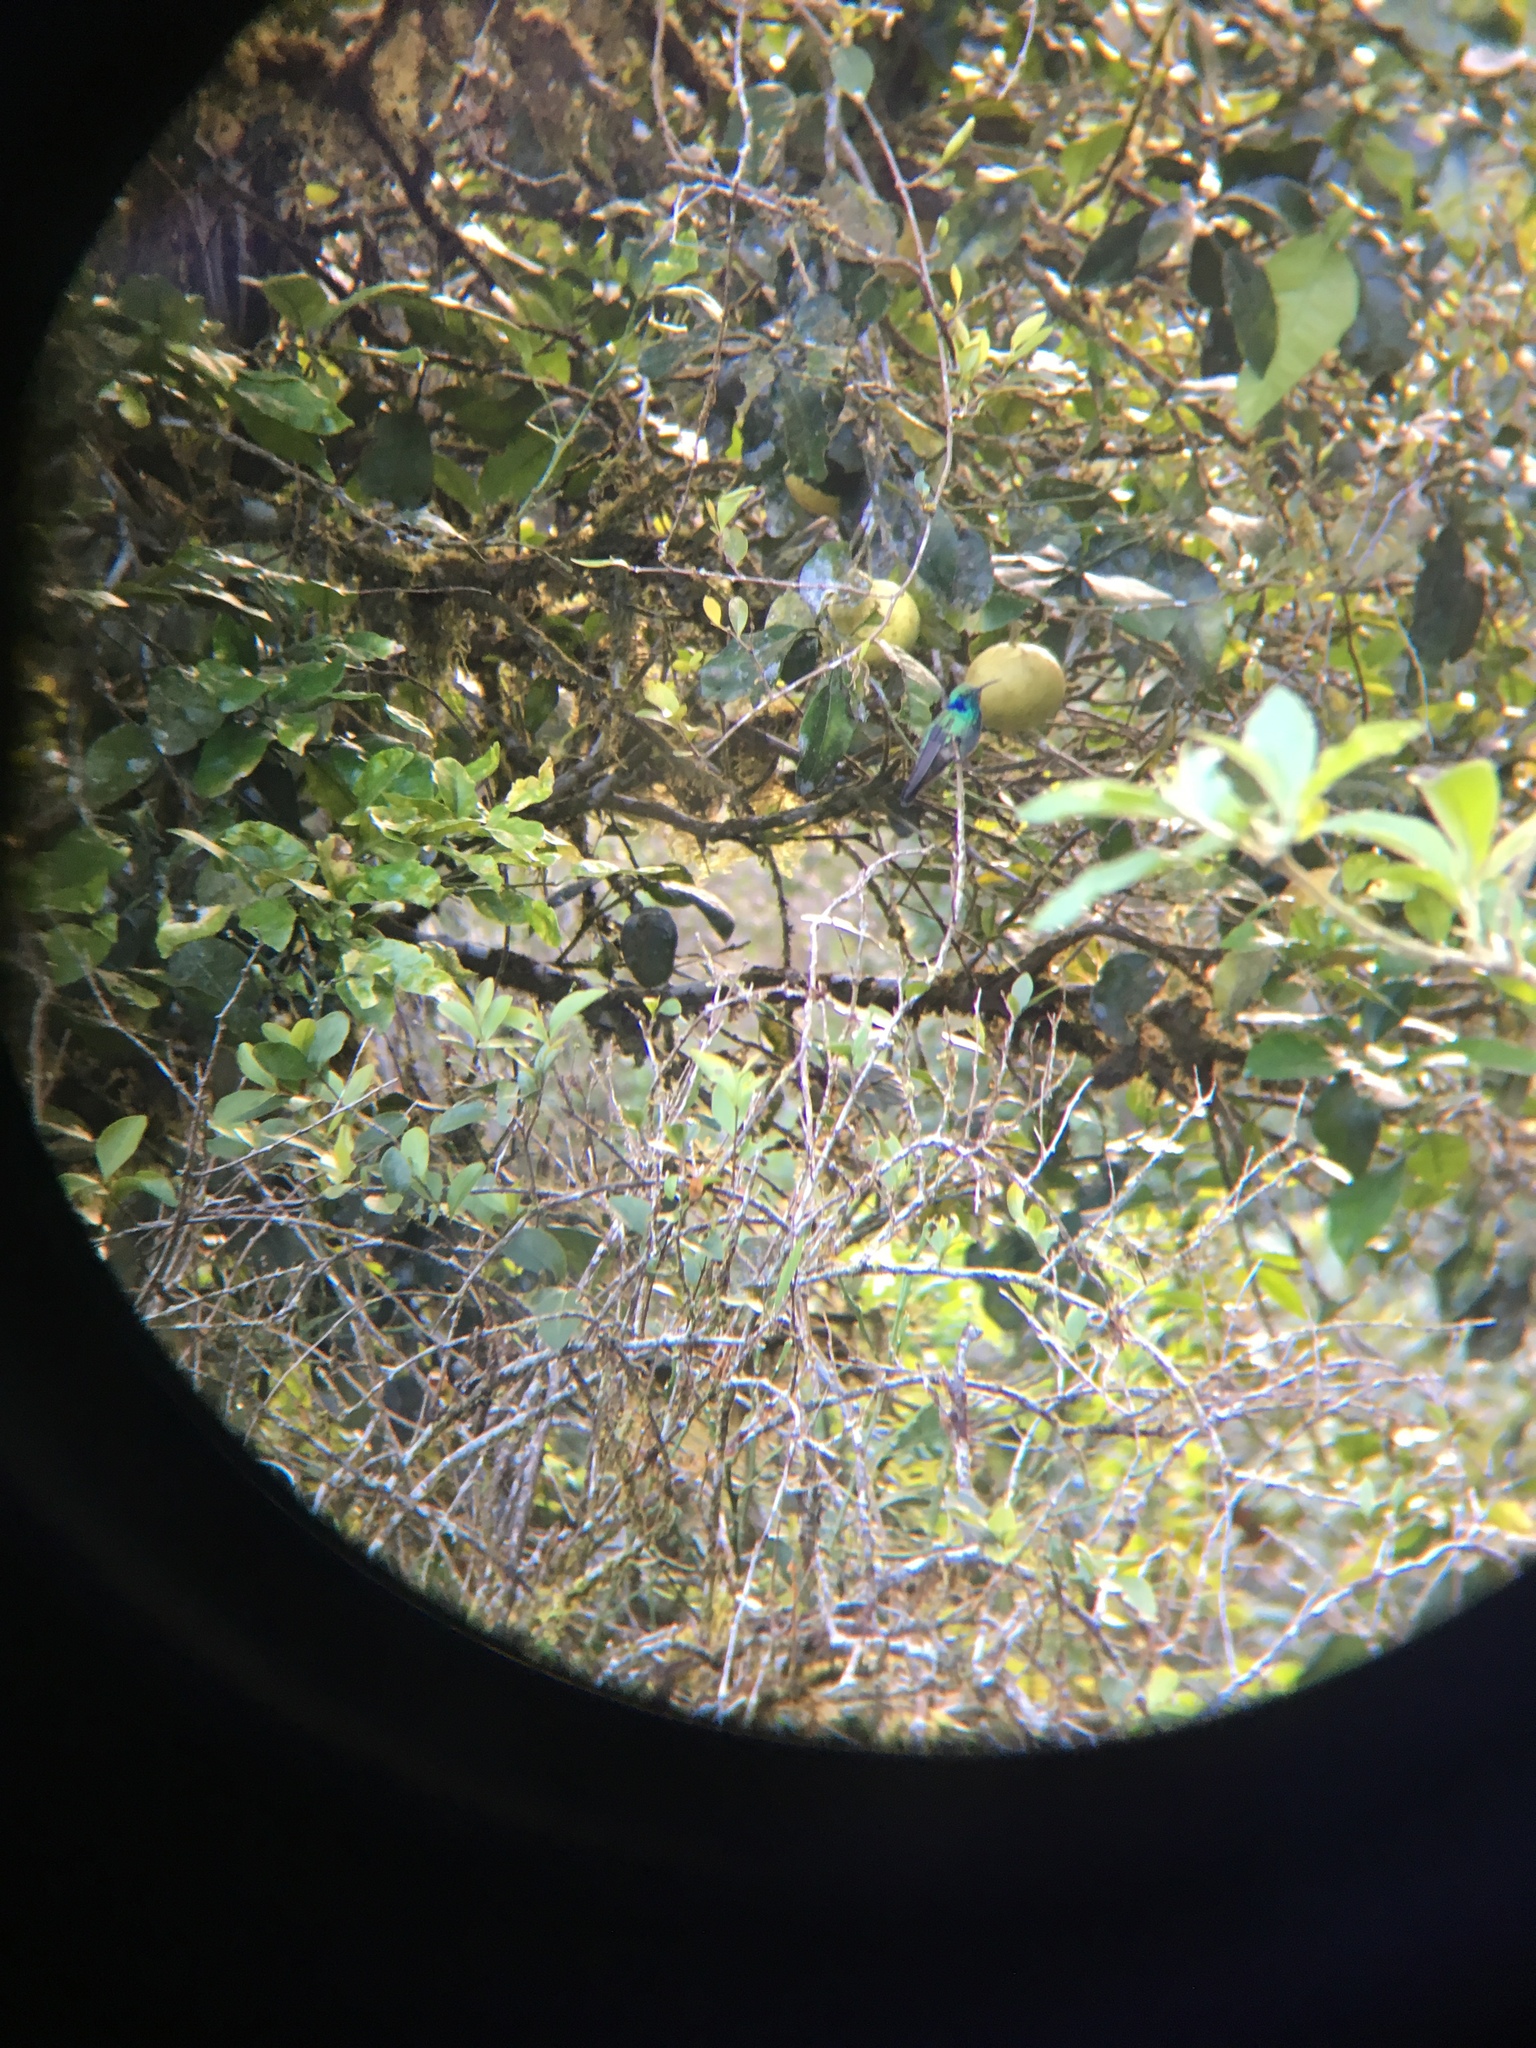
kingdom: Animalia
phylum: Chordata
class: Aves
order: Apodiformes
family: Trochilidae
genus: Colibri
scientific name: Colibri cyanotus
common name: Lesser violetear
